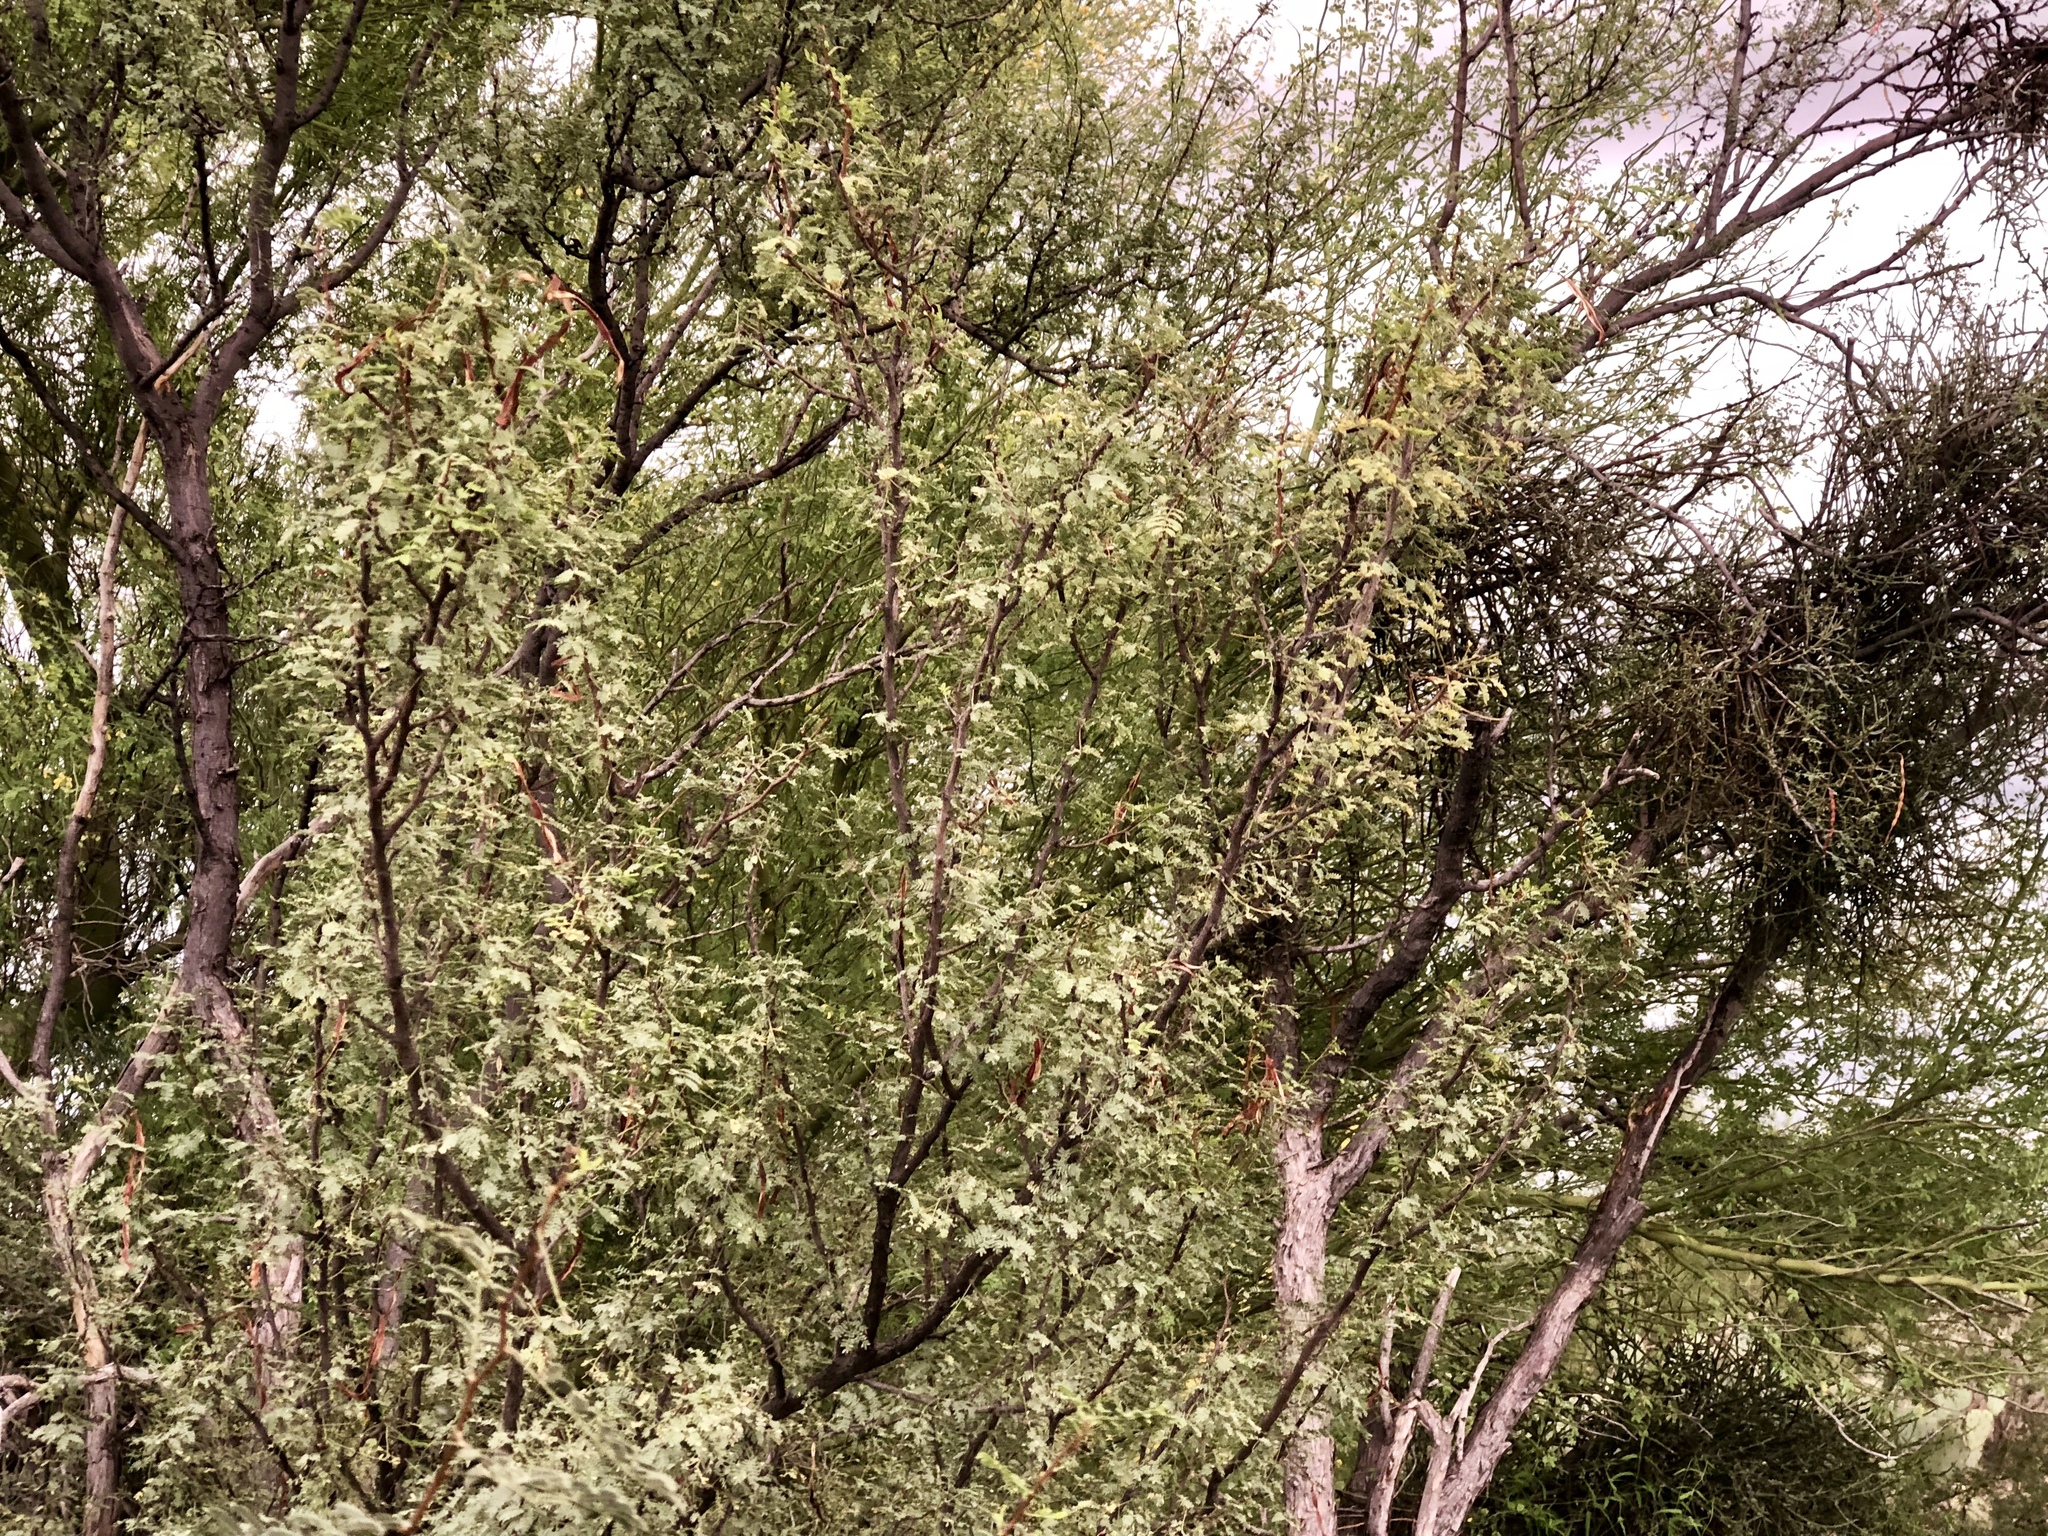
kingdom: Plantae
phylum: Tracheophyta
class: Magnoliopsida
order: Fabales
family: Fabaceae
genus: Vachellia
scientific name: Vachellia constricta
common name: Mescat acacia
